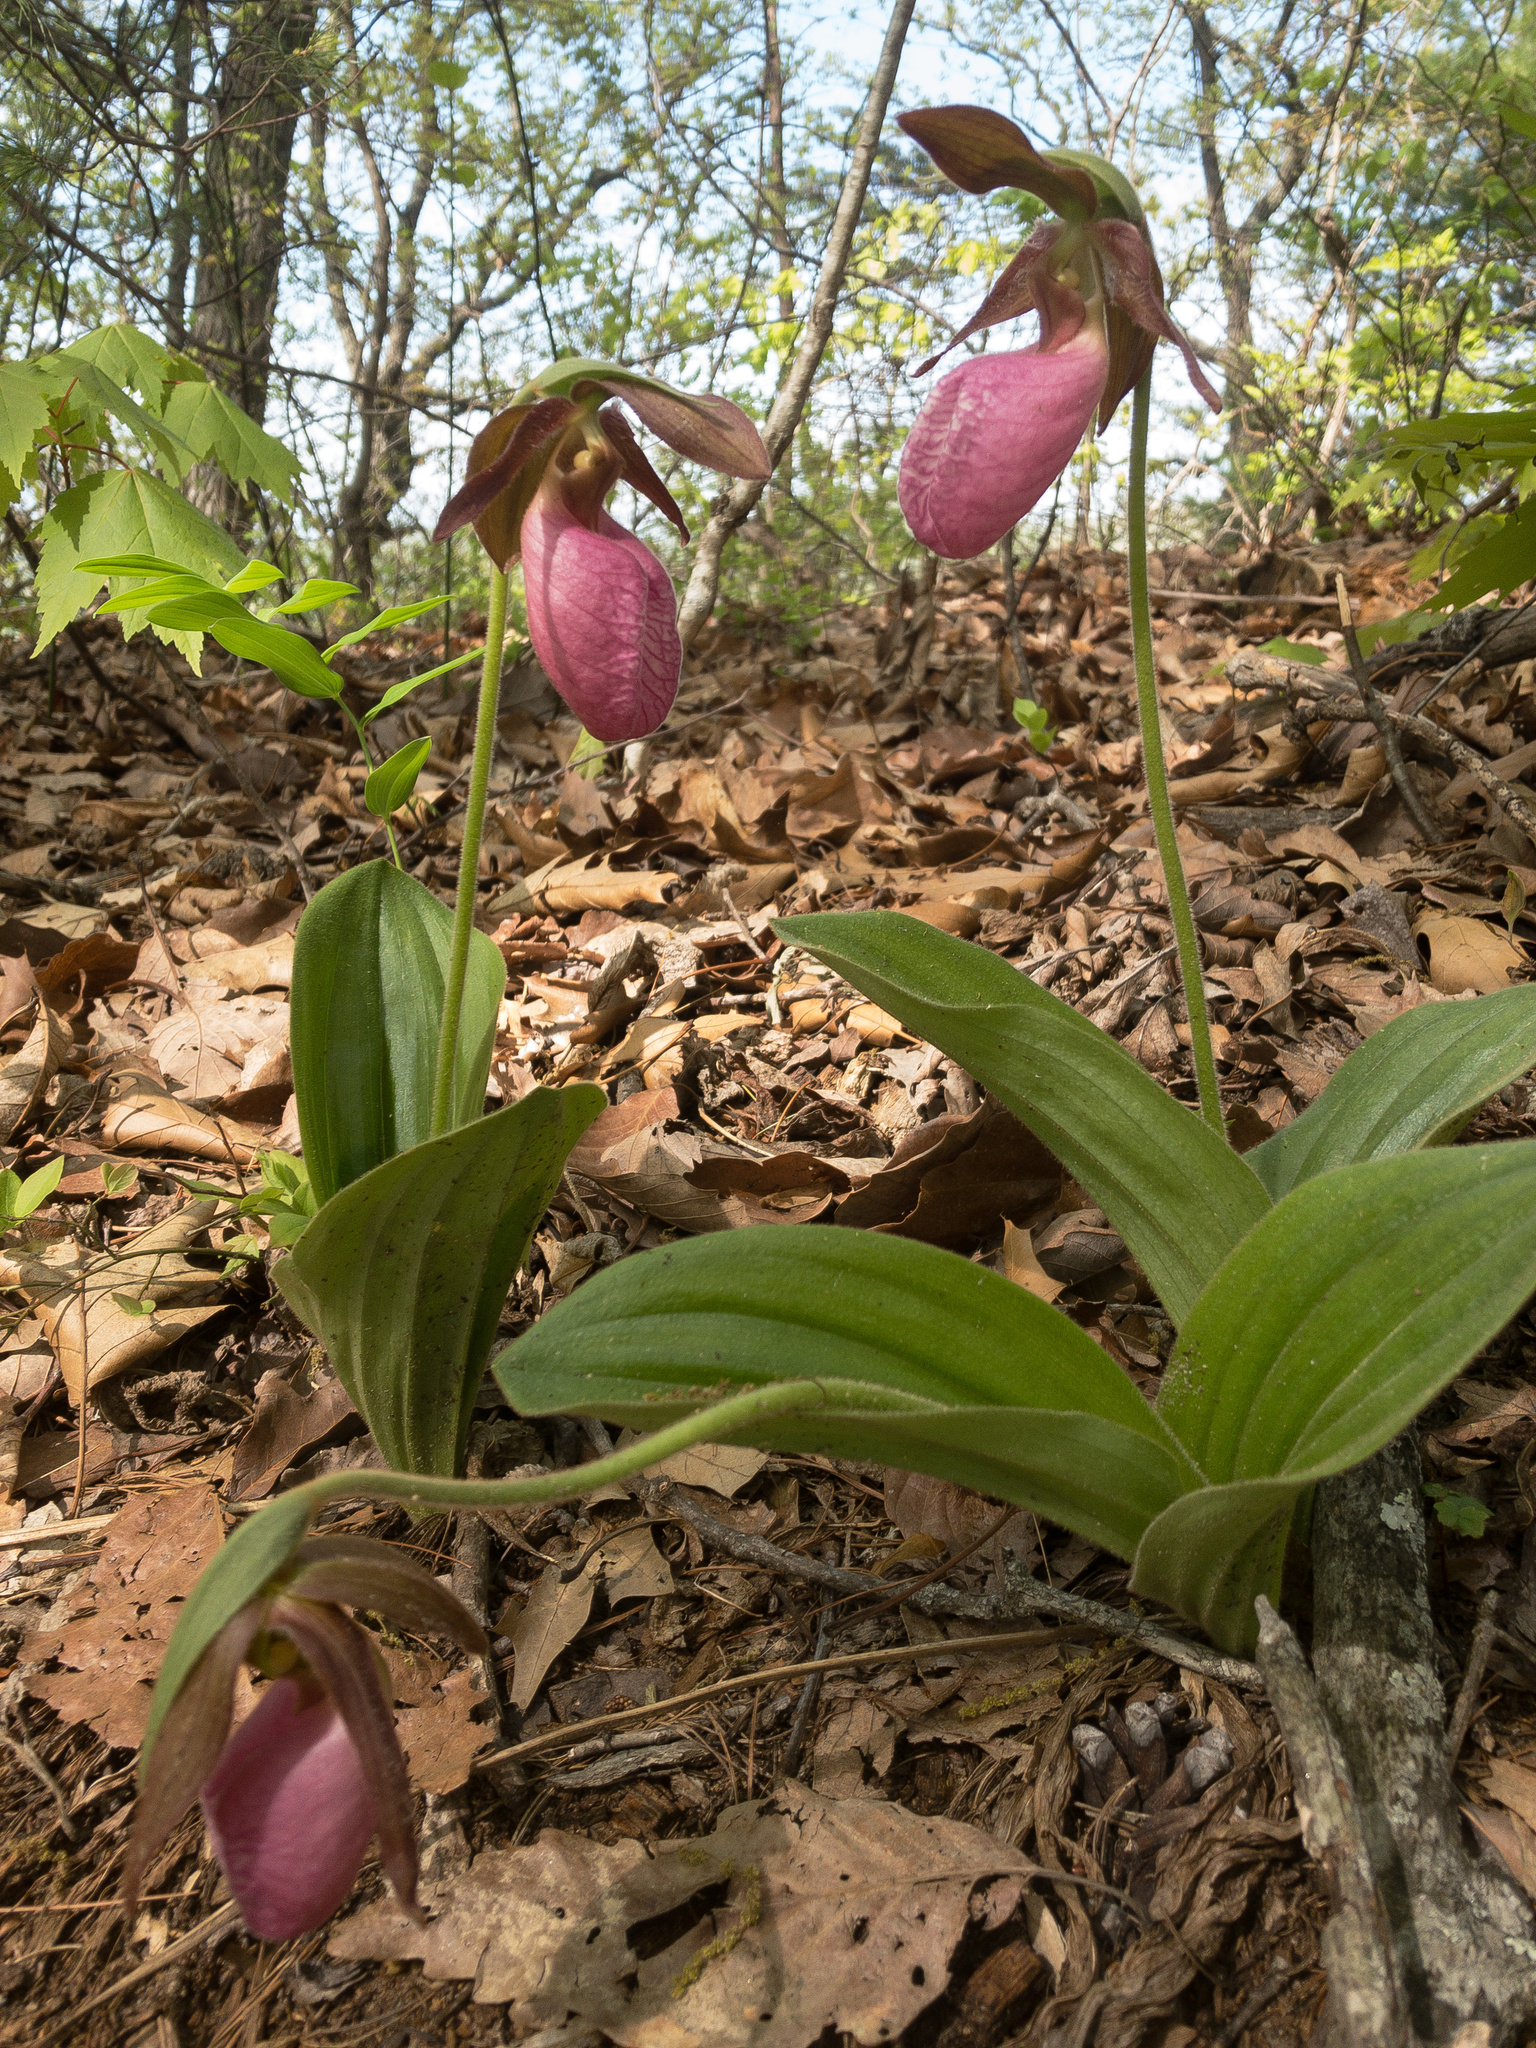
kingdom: Plantae
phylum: Tracheophyta
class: Liliopsida
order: Asparagales
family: Orchidaceae
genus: Cypripedium
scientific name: Cypripedium acaule
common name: Pink lady's-slipper
